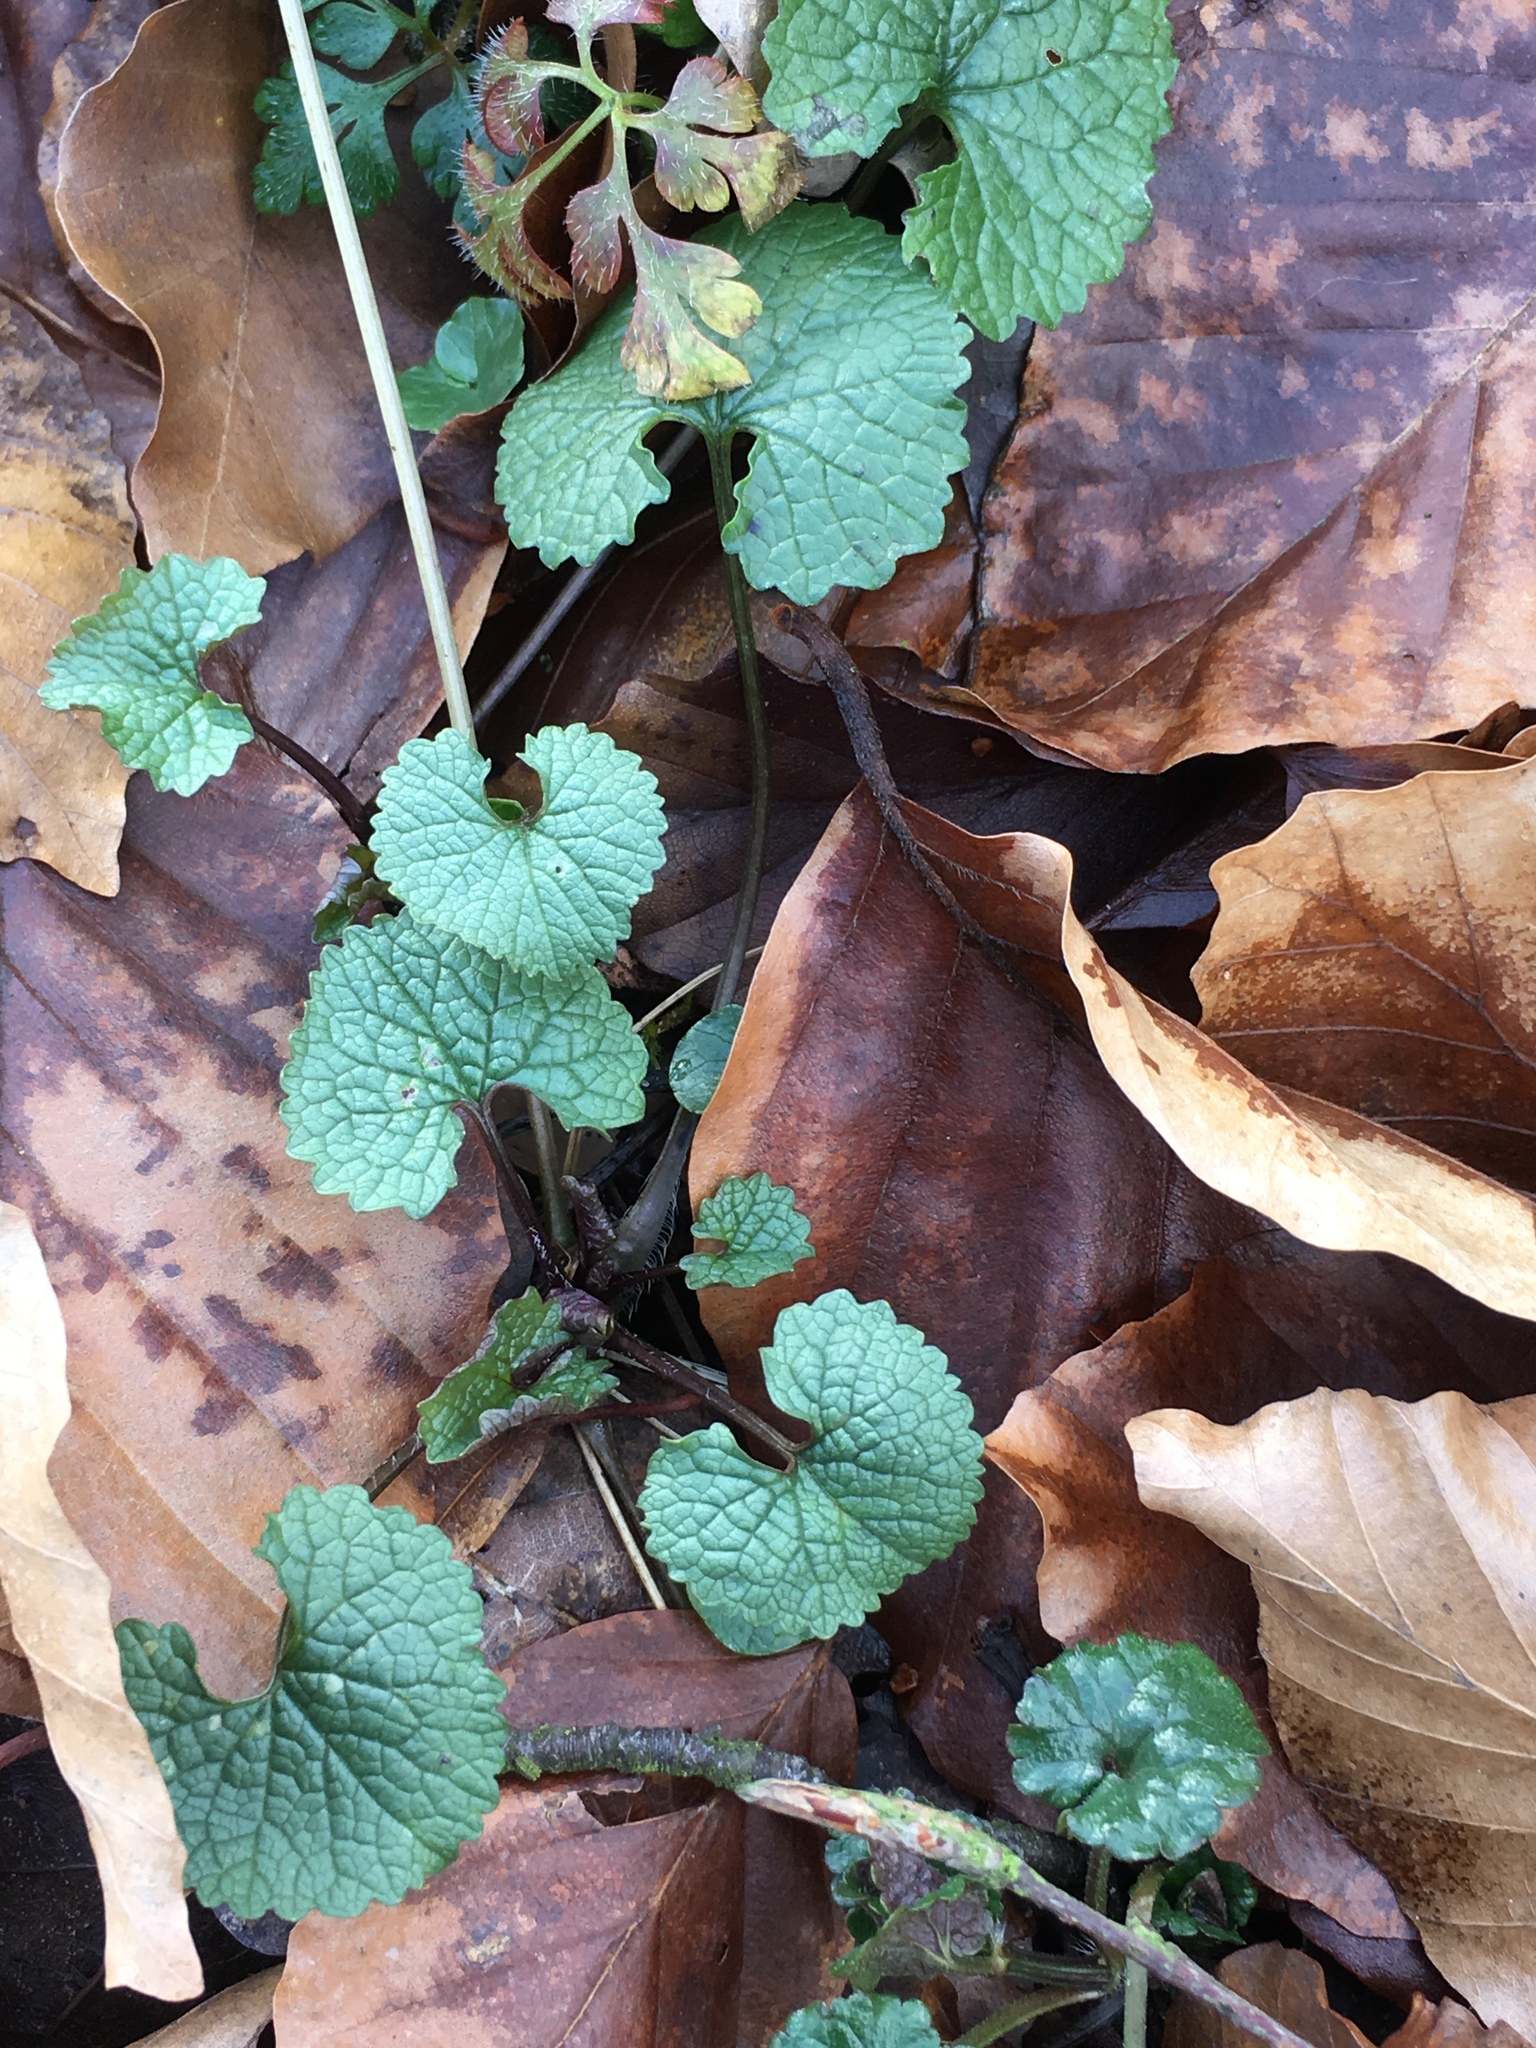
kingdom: Plantae
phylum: Tracheophyta
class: Magnoliopsida
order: Brassicales
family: Brassicaceae
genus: Alliaria
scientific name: Alliaria petiolata
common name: Garlic mustard
